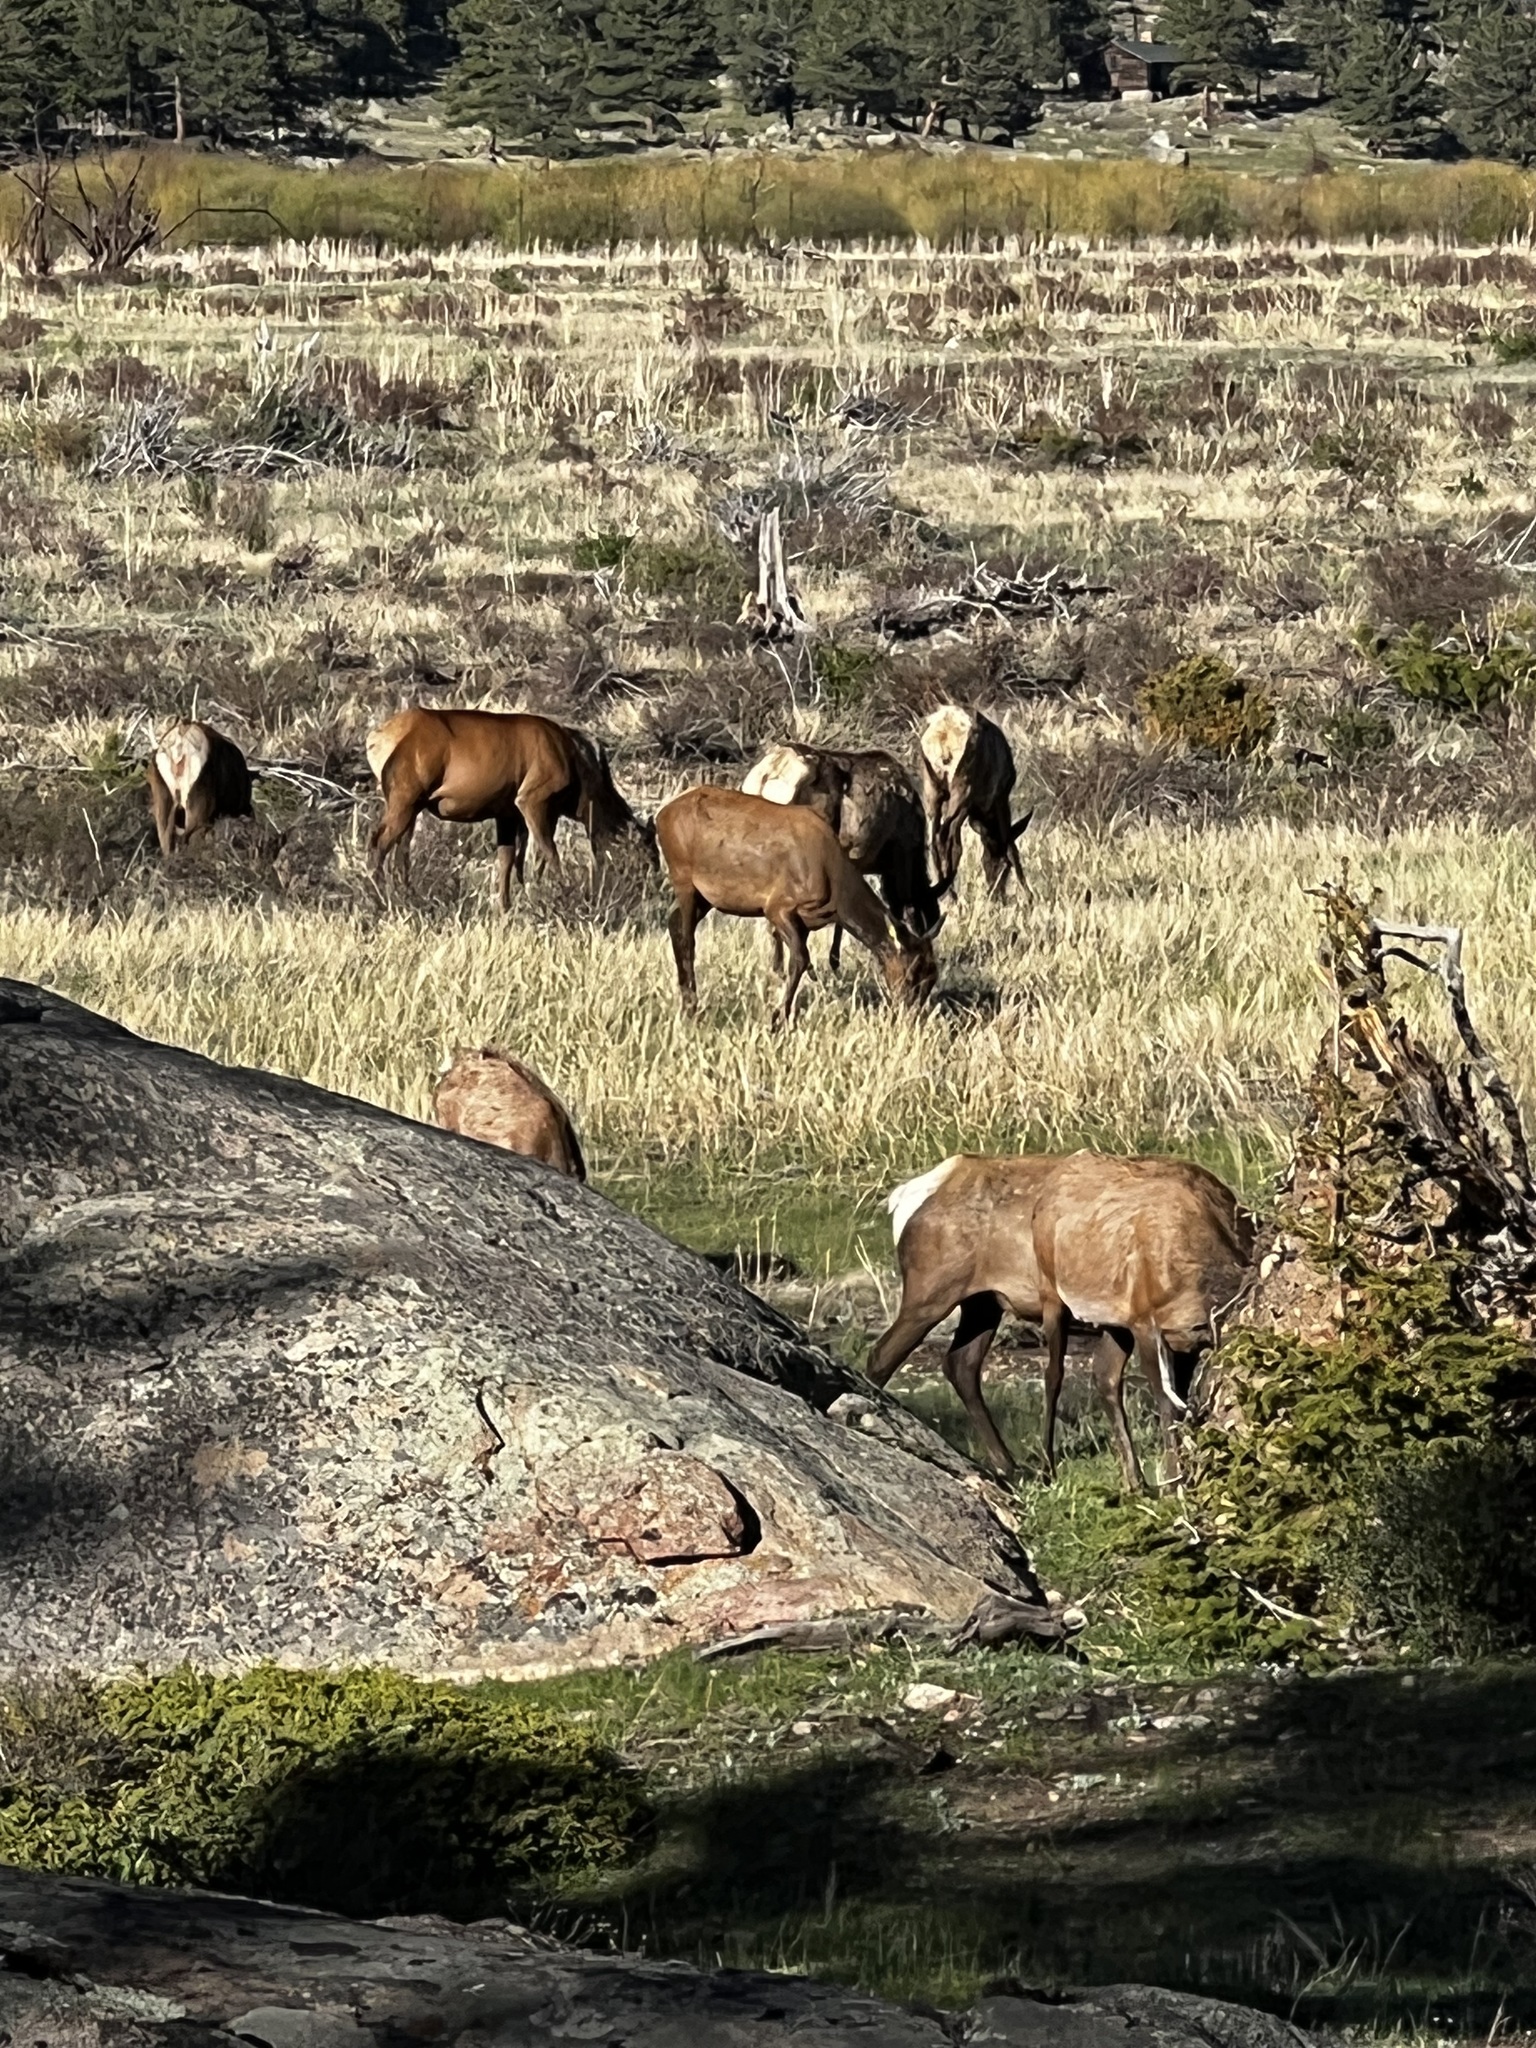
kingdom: Animalia
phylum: Chordata
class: Mammalia
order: Artiodactyla
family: Cervidae
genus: Cervus
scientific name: Cervus elaphus
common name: Red deer
